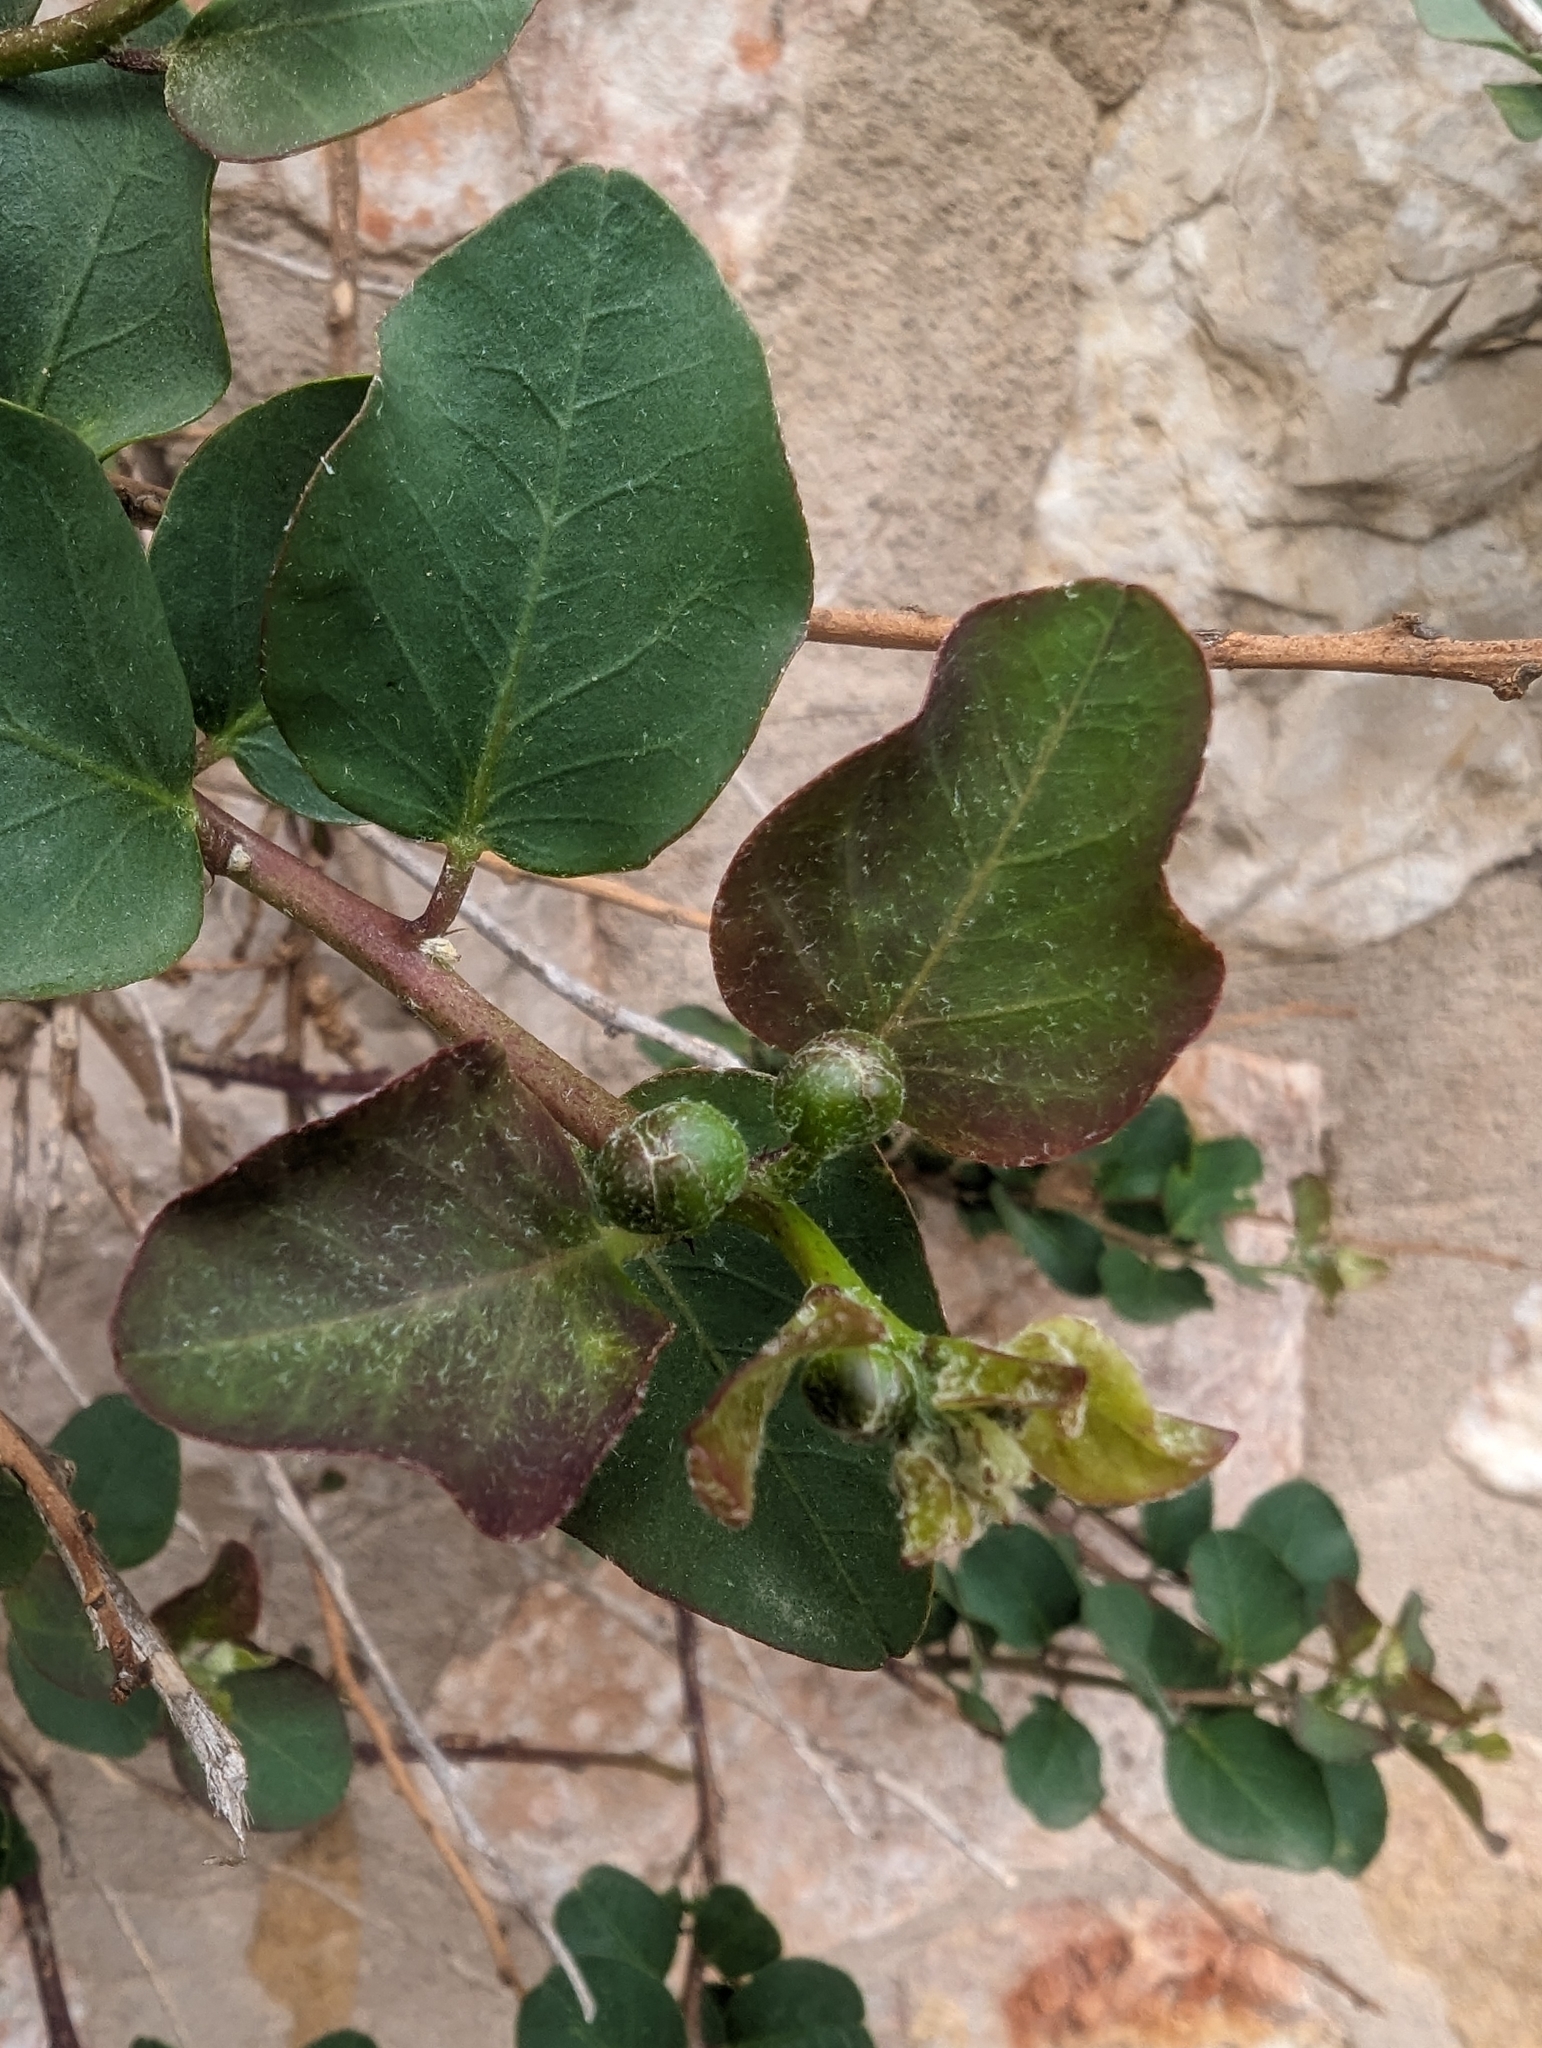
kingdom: Plantae
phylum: Tracheophyta
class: Magnoliopsida
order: Brassicales
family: Capparaceae
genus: Capparis
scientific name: Capparis spinosa
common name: Caper
